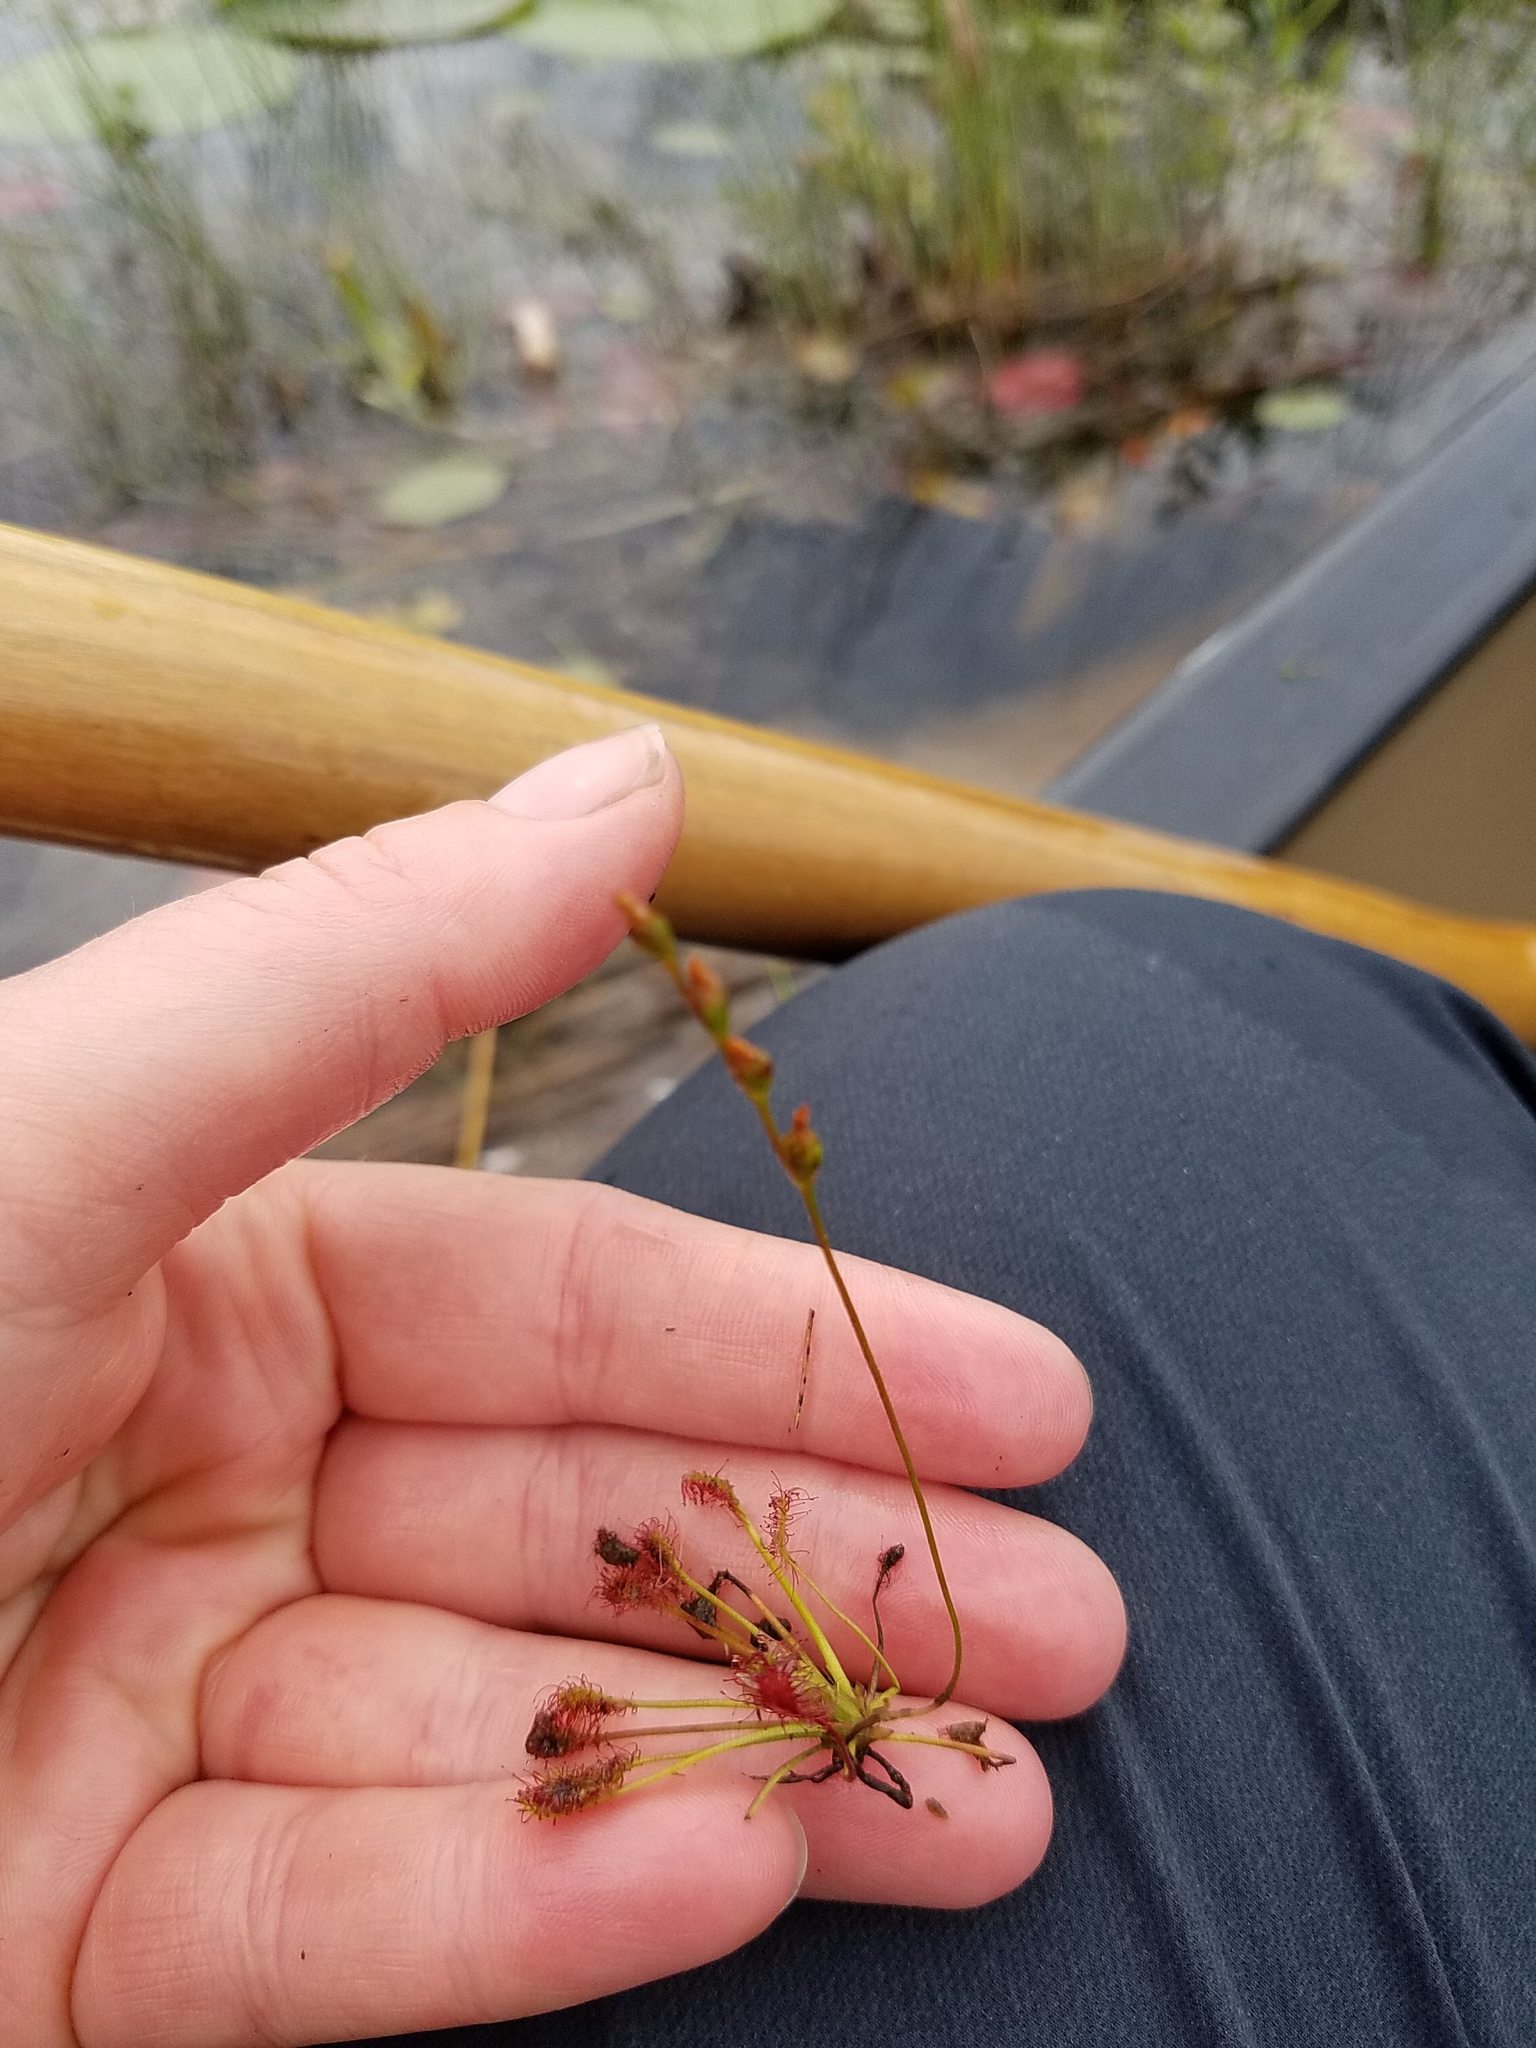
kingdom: Plantae
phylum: Tracheophyta
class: Magnoliopsida
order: Caryophyllales
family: Droseraceae
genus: Drosera
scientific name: Drosera intermedia
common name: Oblong-leaved sundew
